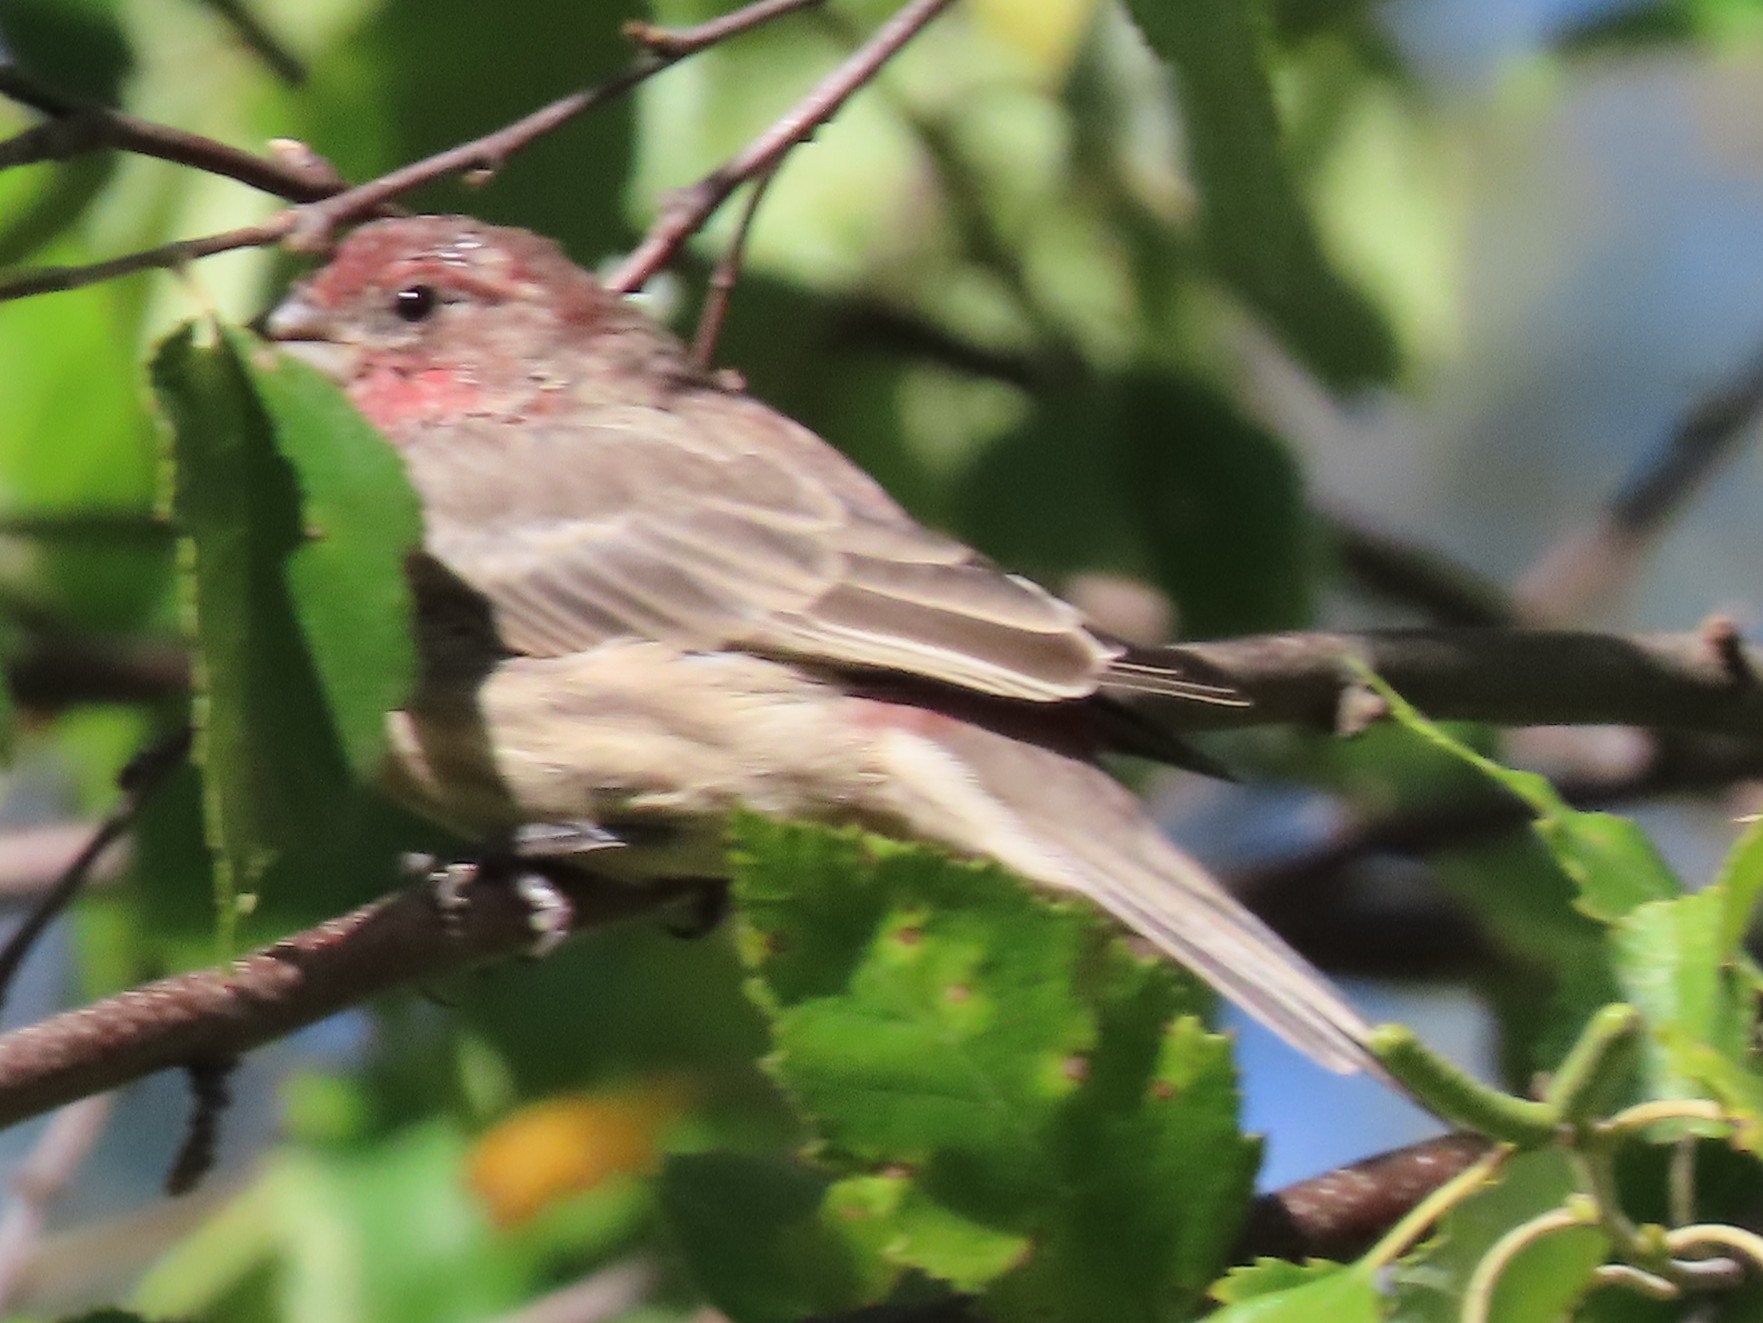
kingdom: Animalia
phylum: Chordata
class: Aves
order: Passeriformes
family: Fringillidae
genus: Haemorhous
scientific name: Haemorhous mexicanus
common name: House finch
